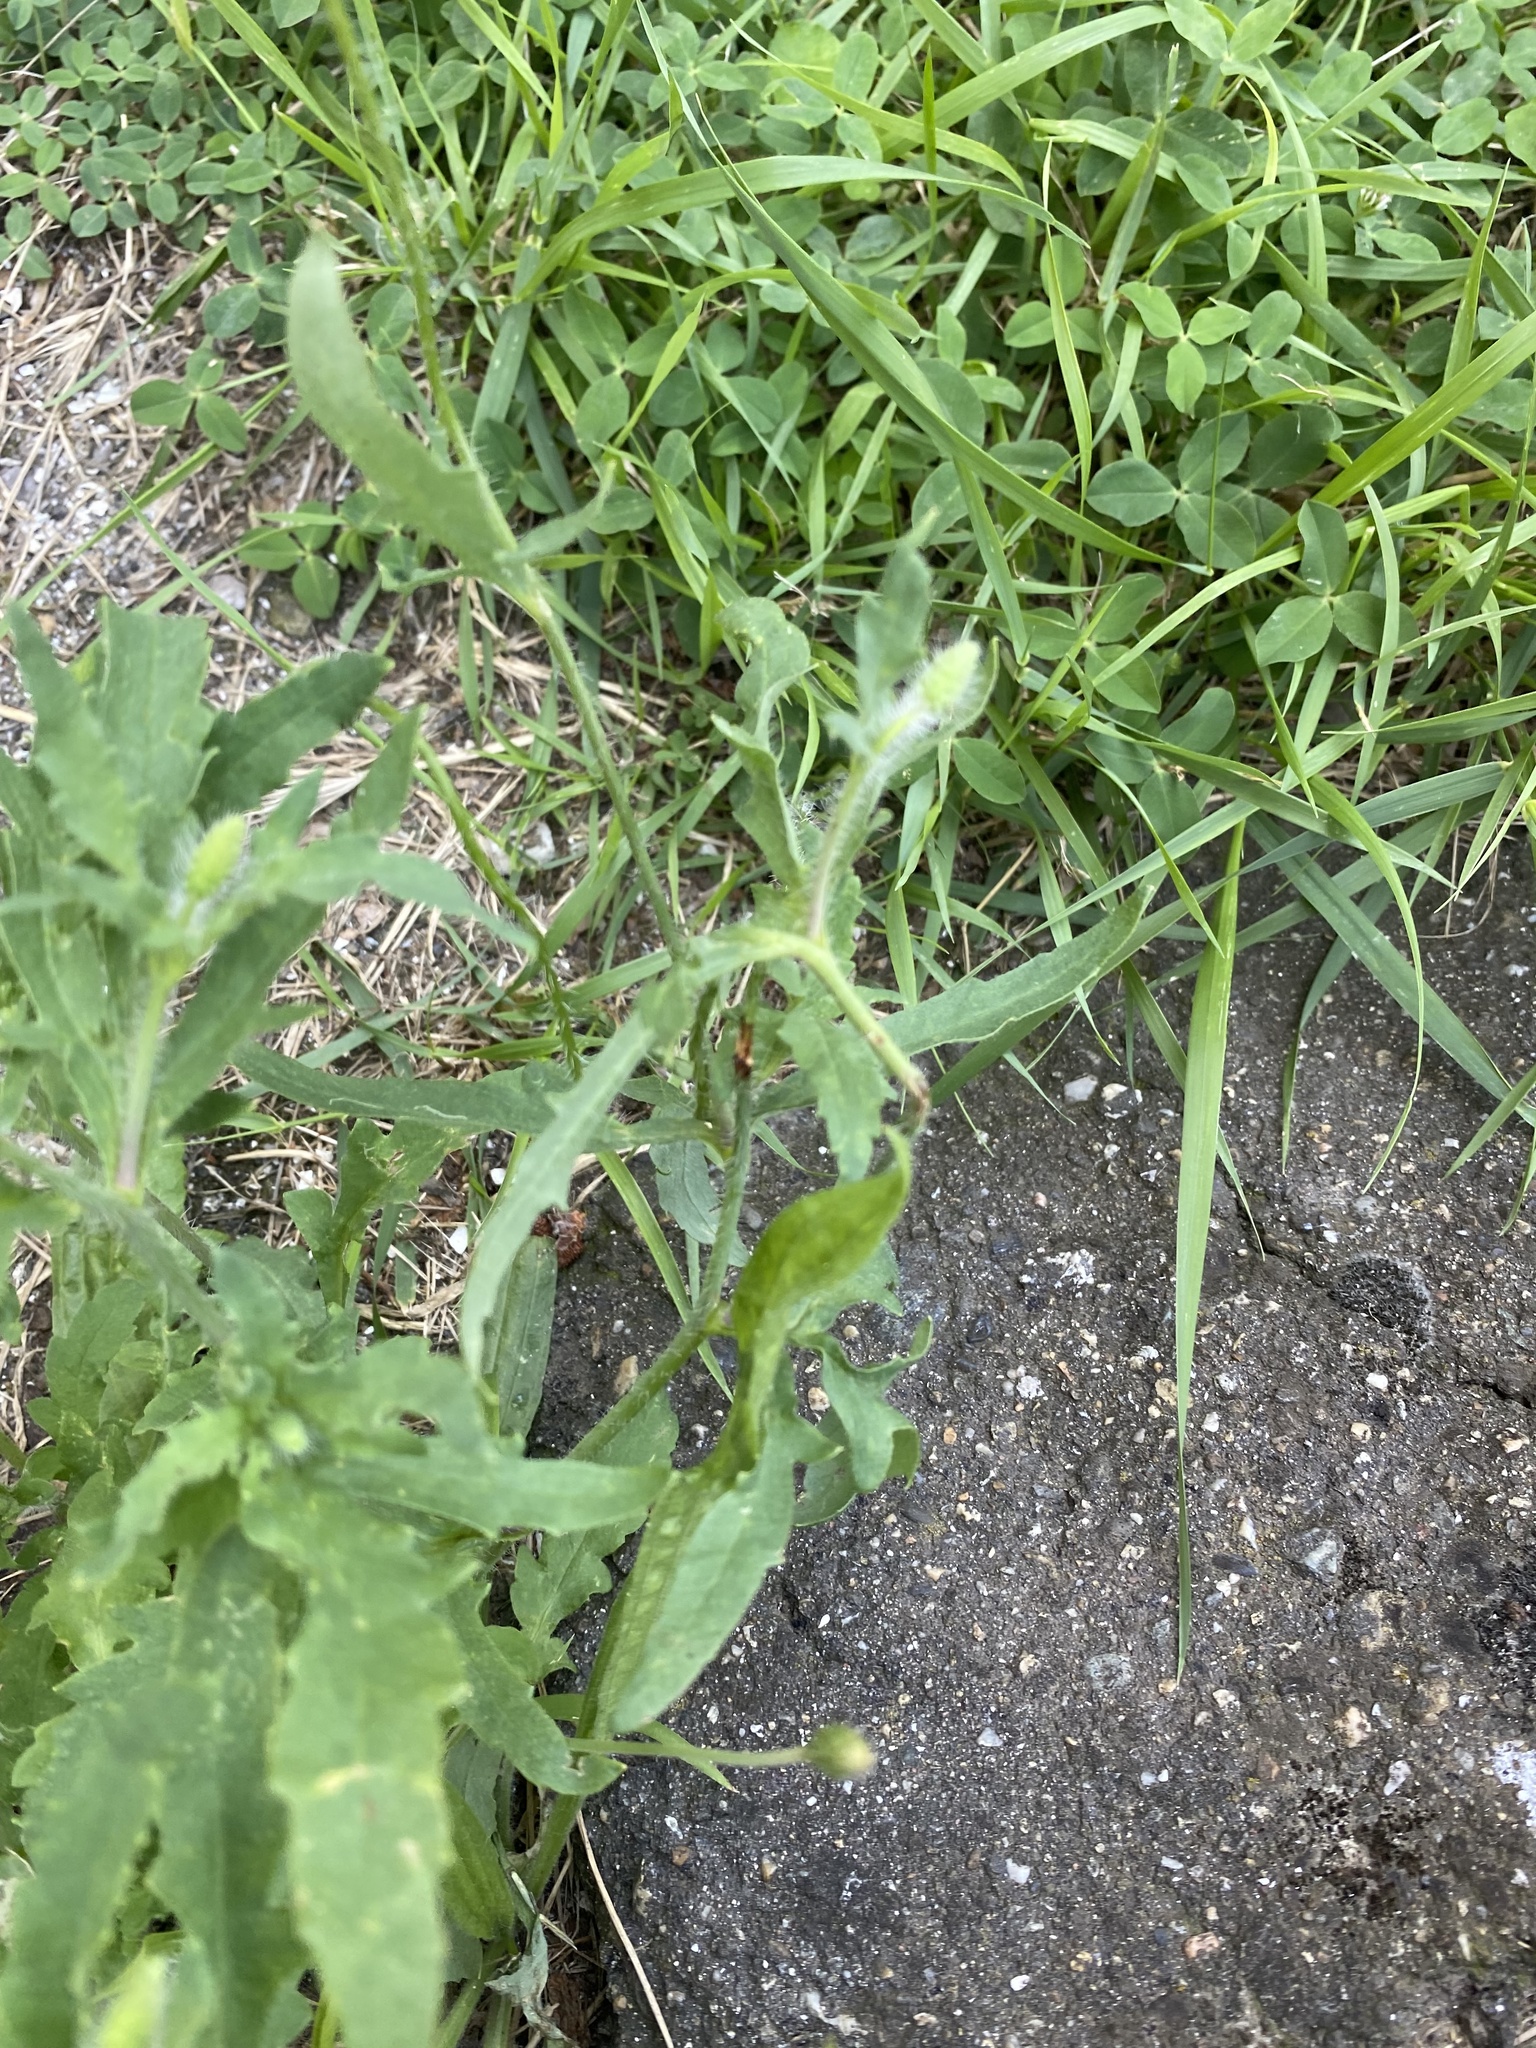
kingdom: Plantae
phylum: Tracheophyta
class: Magnoliopsida
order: Ranunculales
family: Papaveraceae
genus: Papaver
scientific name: Papaver rhoeas
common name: Corn poppy
